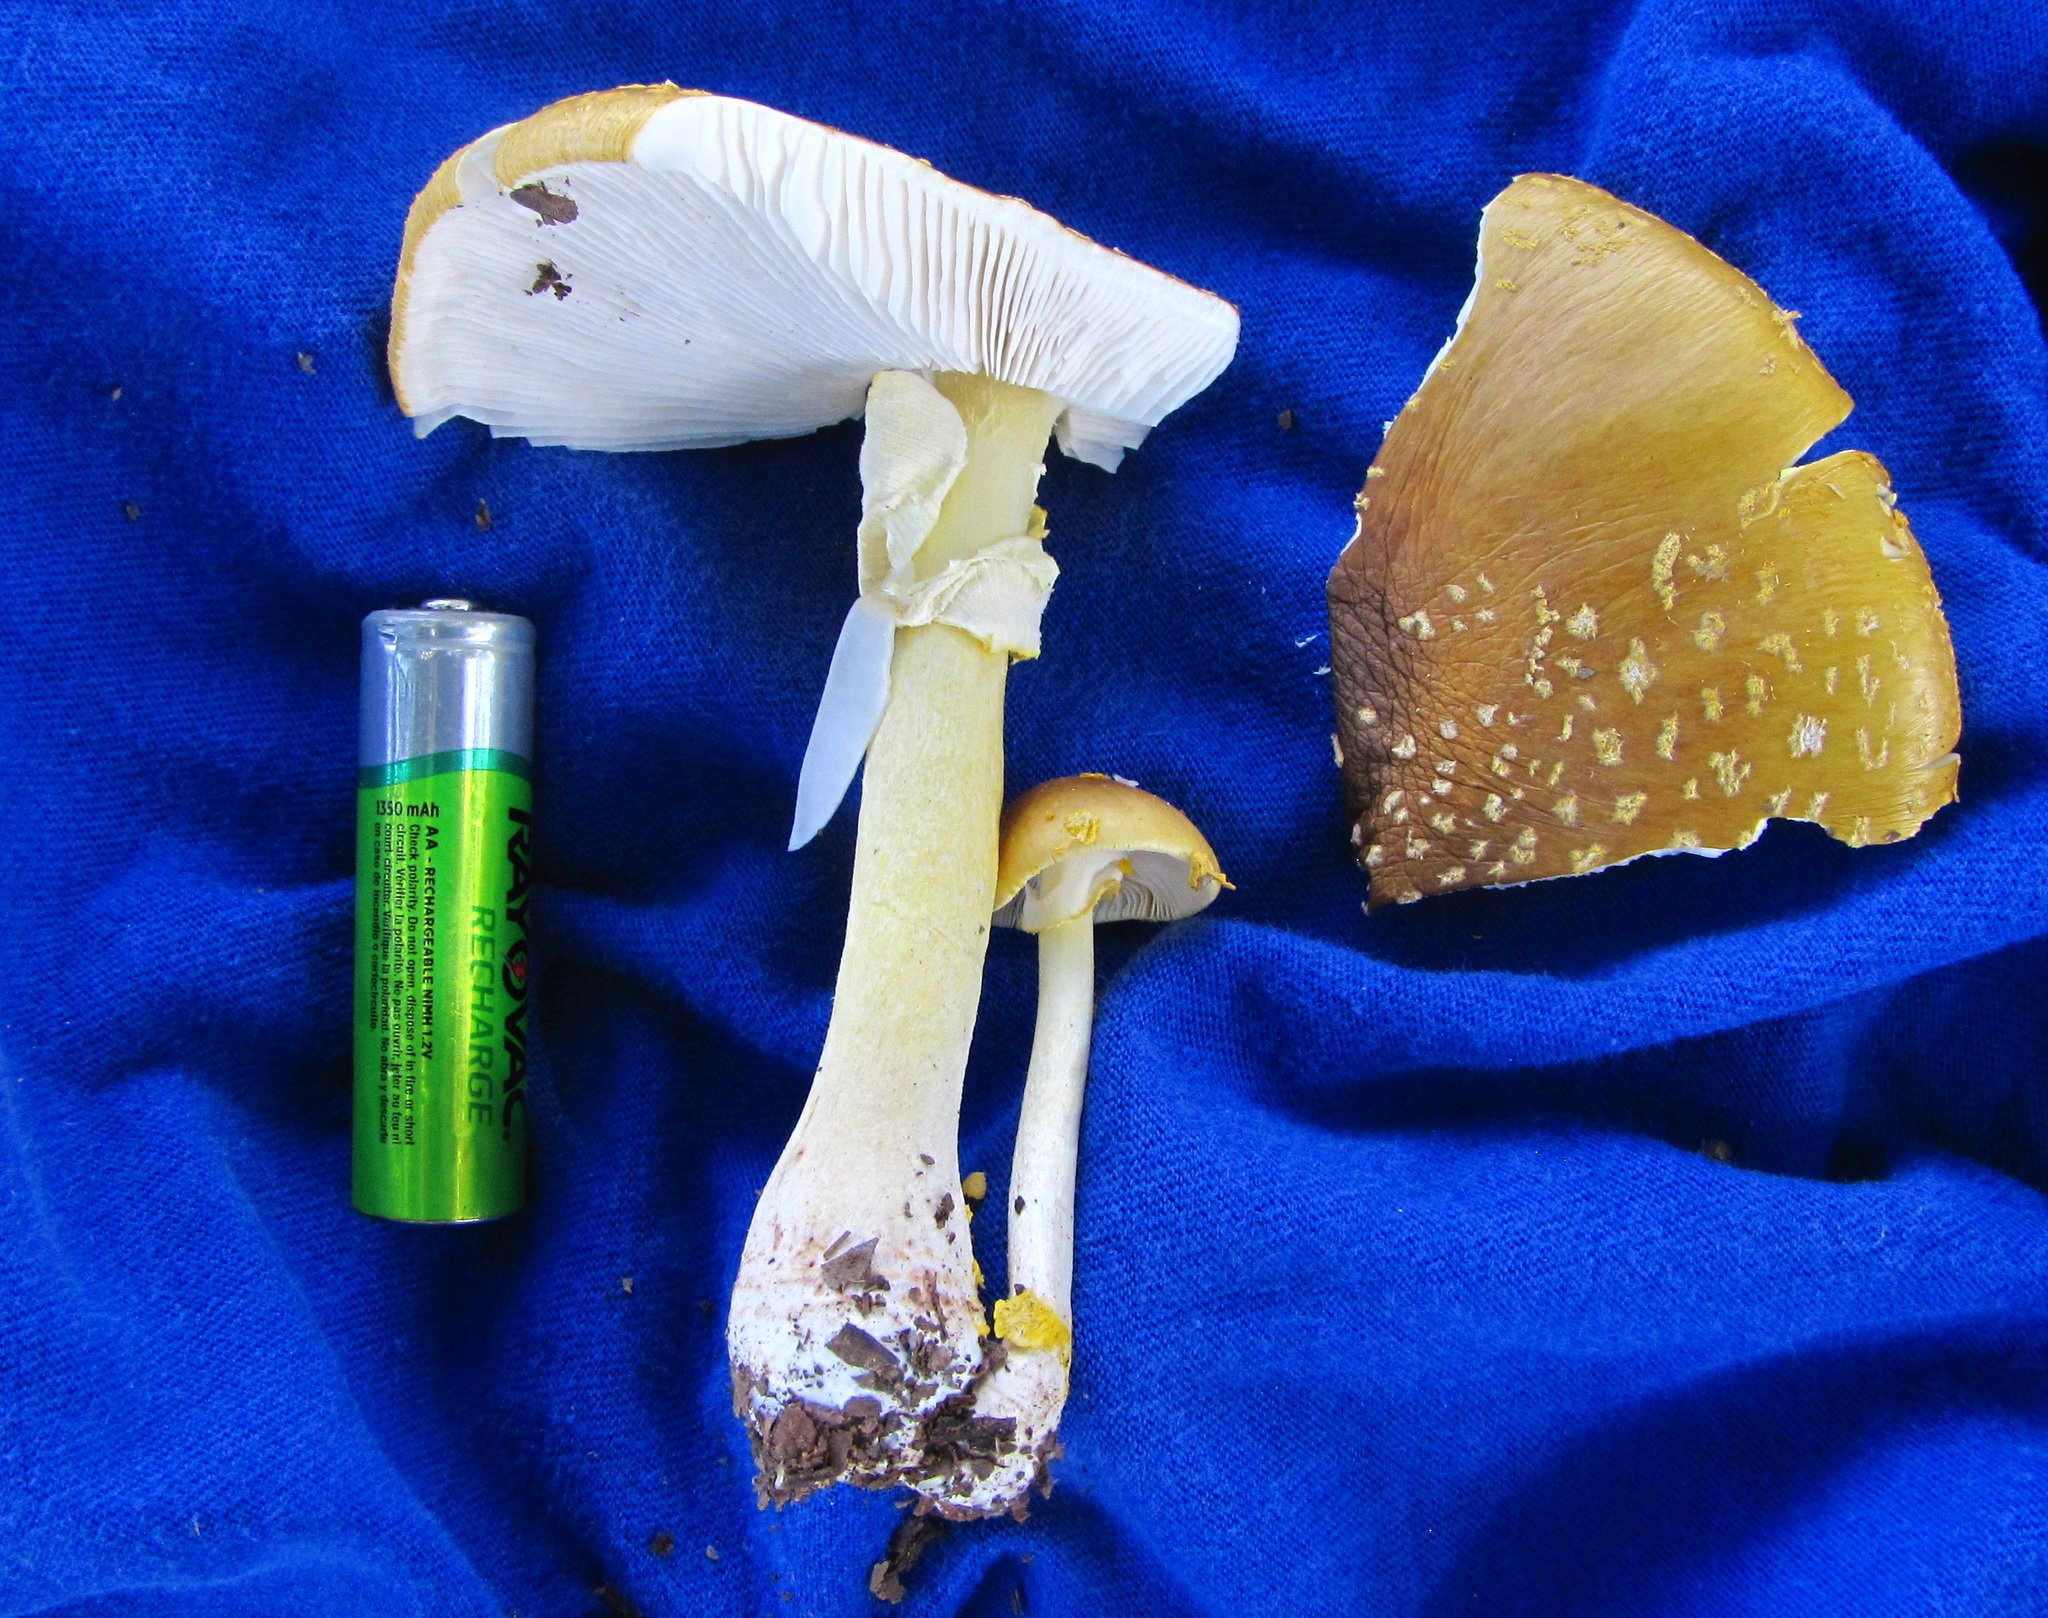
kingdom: Fungi
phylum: Basidiomycota
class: Agaricomycetes
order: Agaricales
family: Amanitaceae
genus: Amanita
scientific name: Amanita flavoconia
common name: Yellow patches
